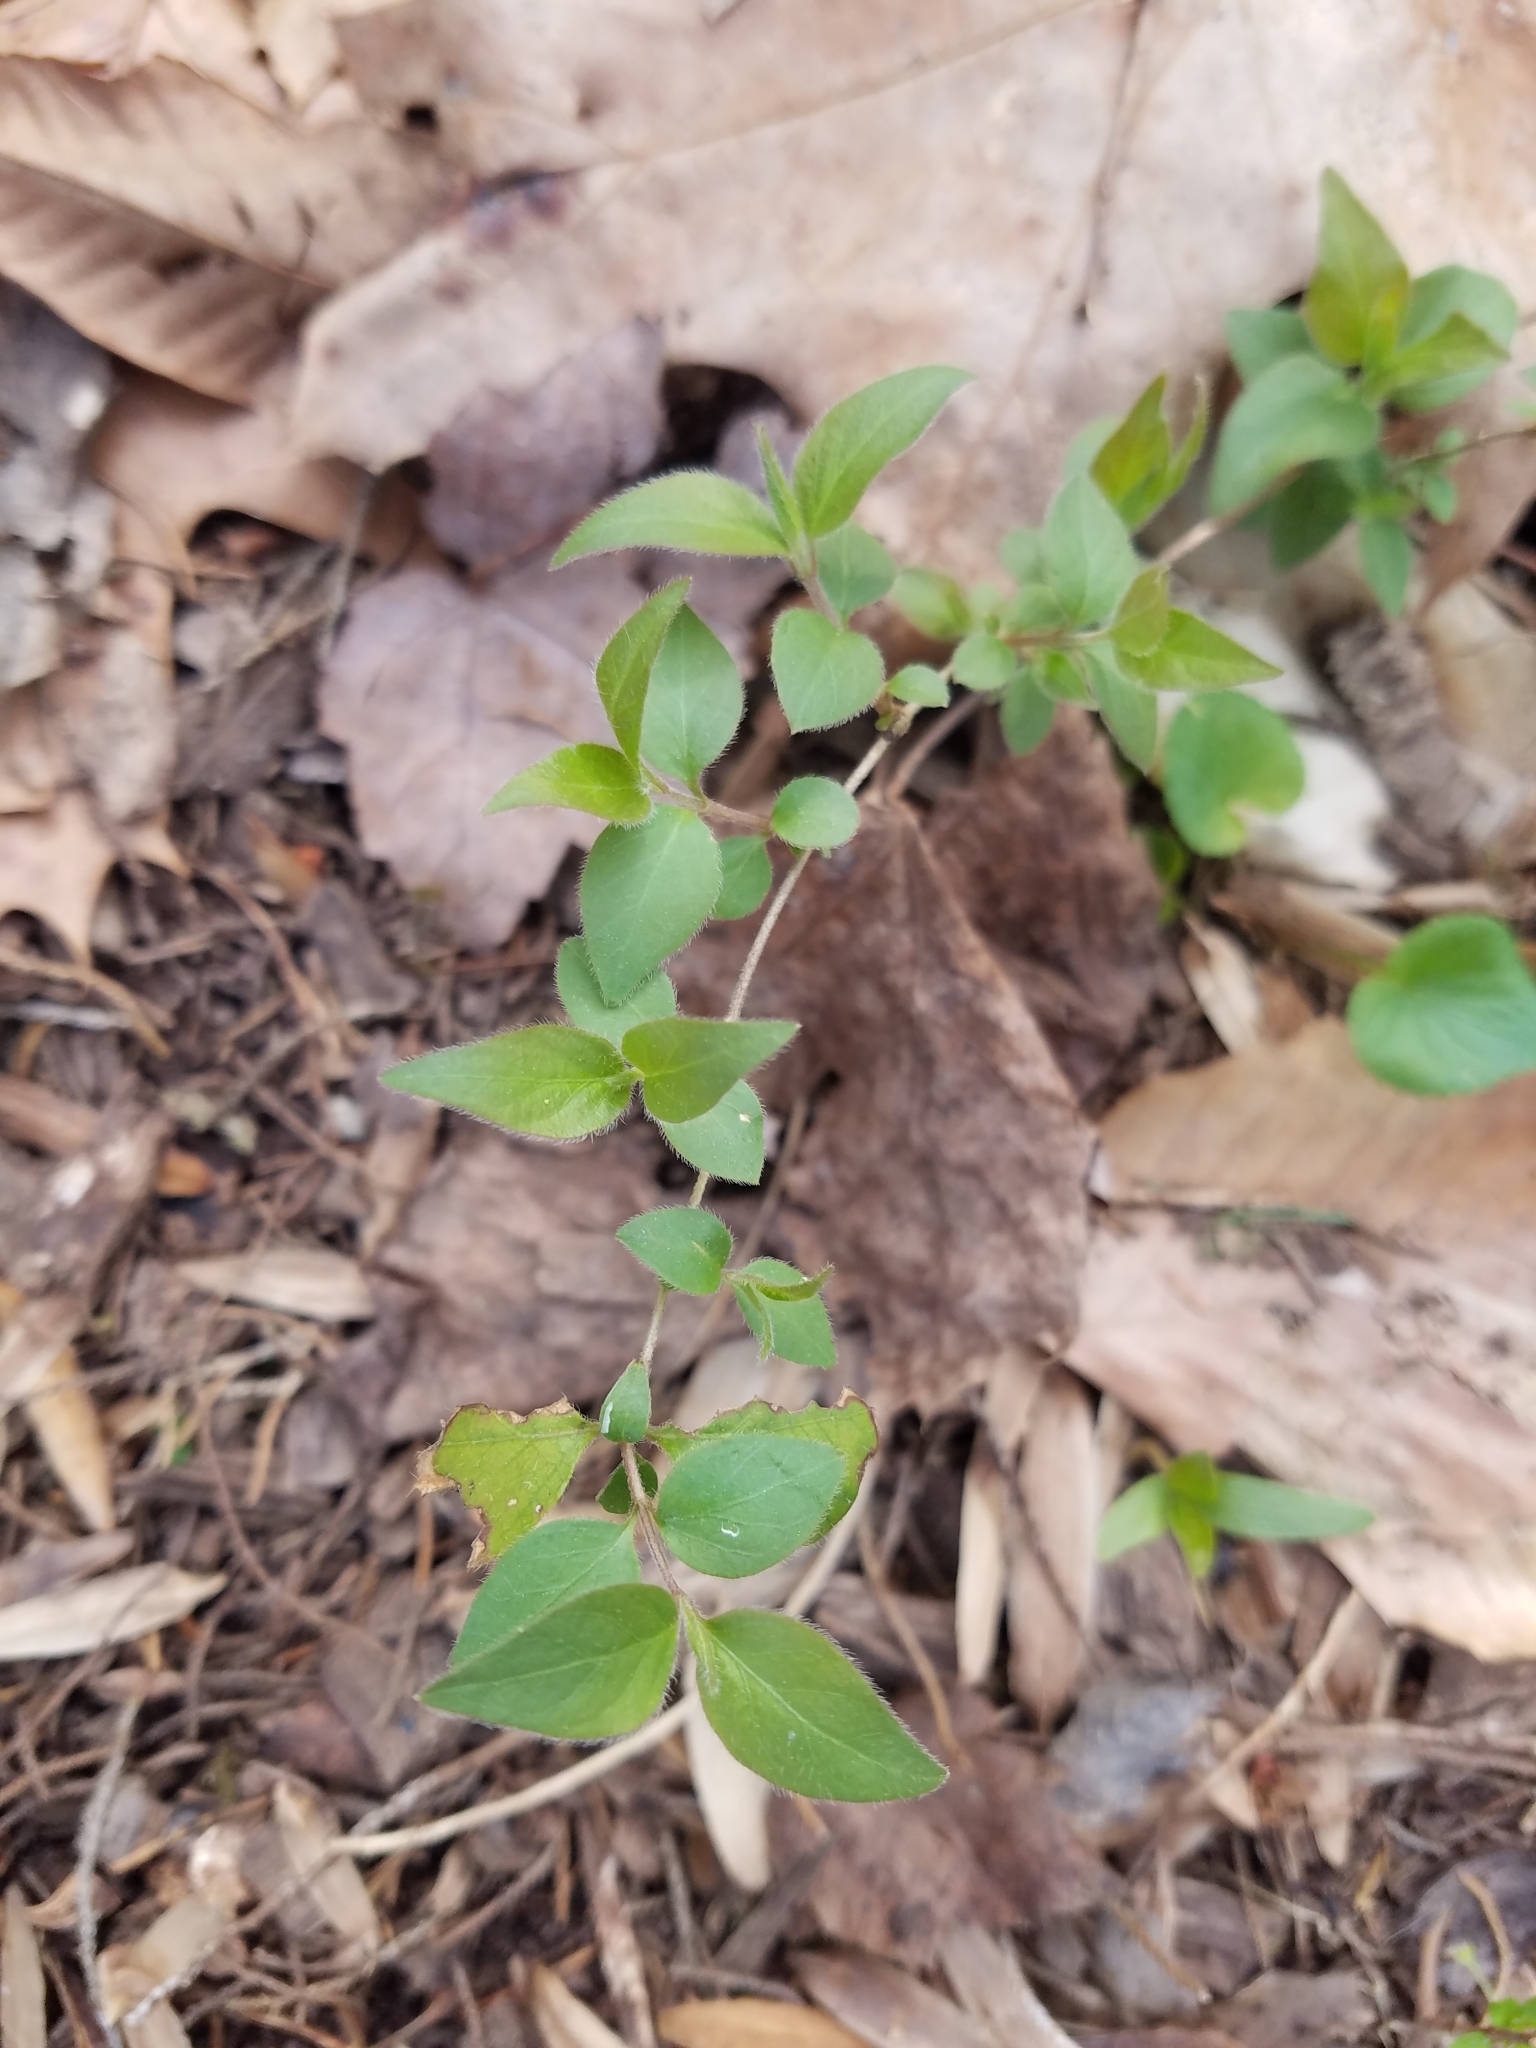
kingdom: Plantae
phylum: Tracheophyta
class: Magnoliopsida
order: Dipsacales
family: Caprifoliaceae
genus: Lonicera
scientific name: Lonicera maackii
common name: Amur honeysuckle
